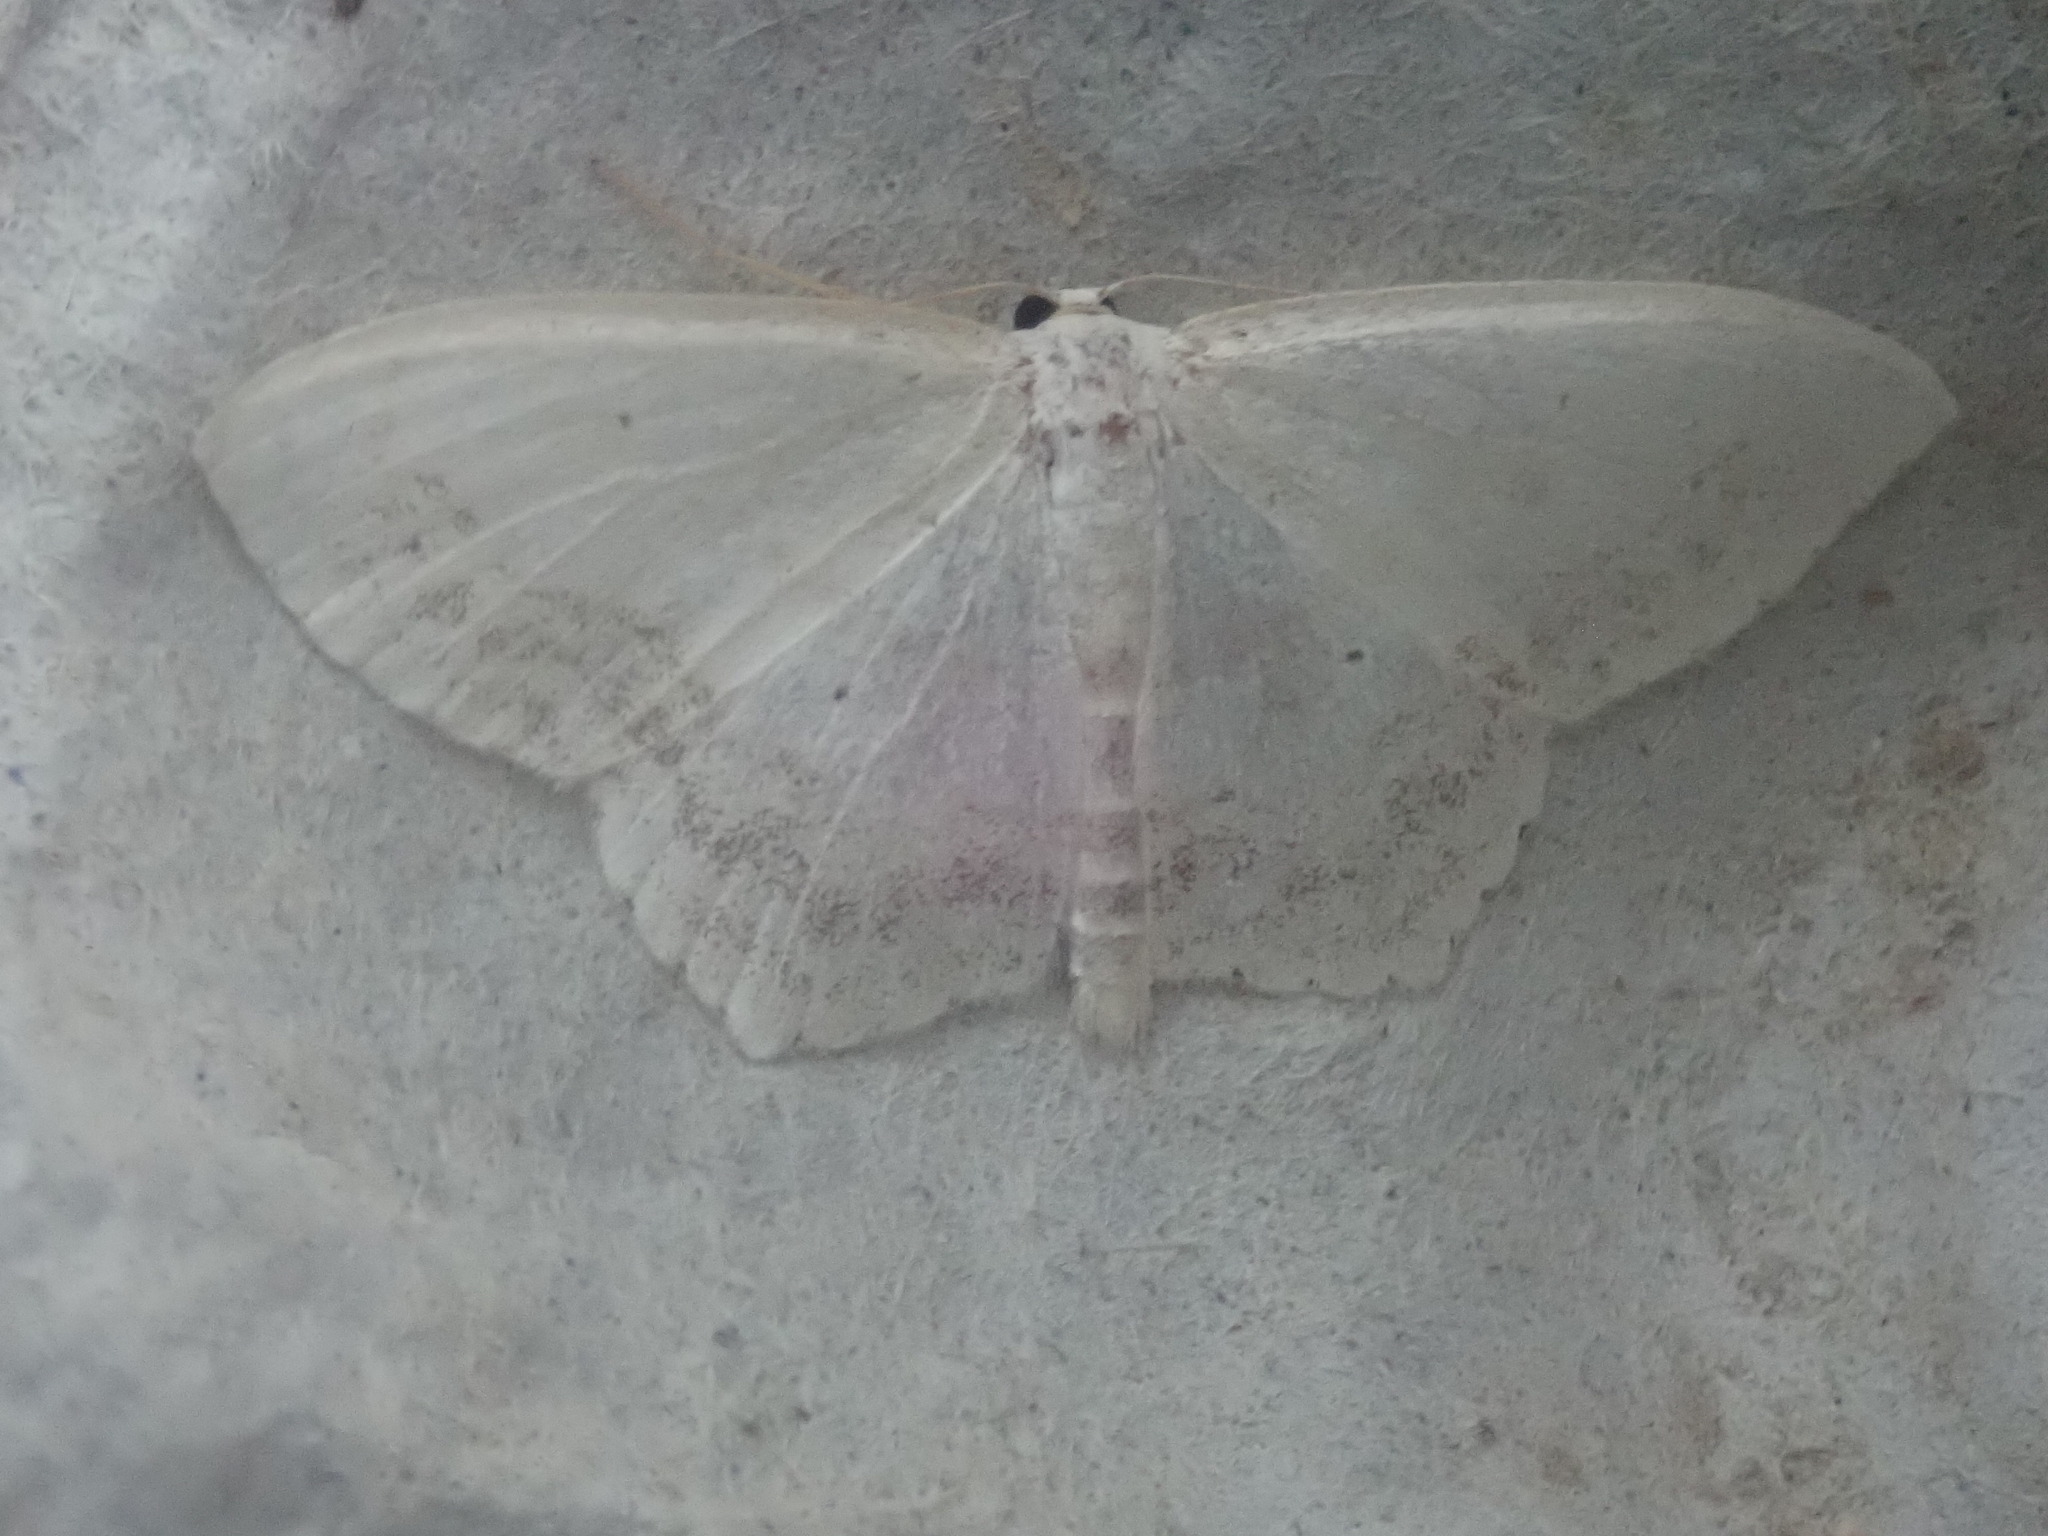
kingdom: Animalia
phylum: Arthropoda
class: Insecta
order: Lepidoptera
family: Geometridae
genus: Scopula
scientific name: Scopula limboundata
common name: Large lace border
